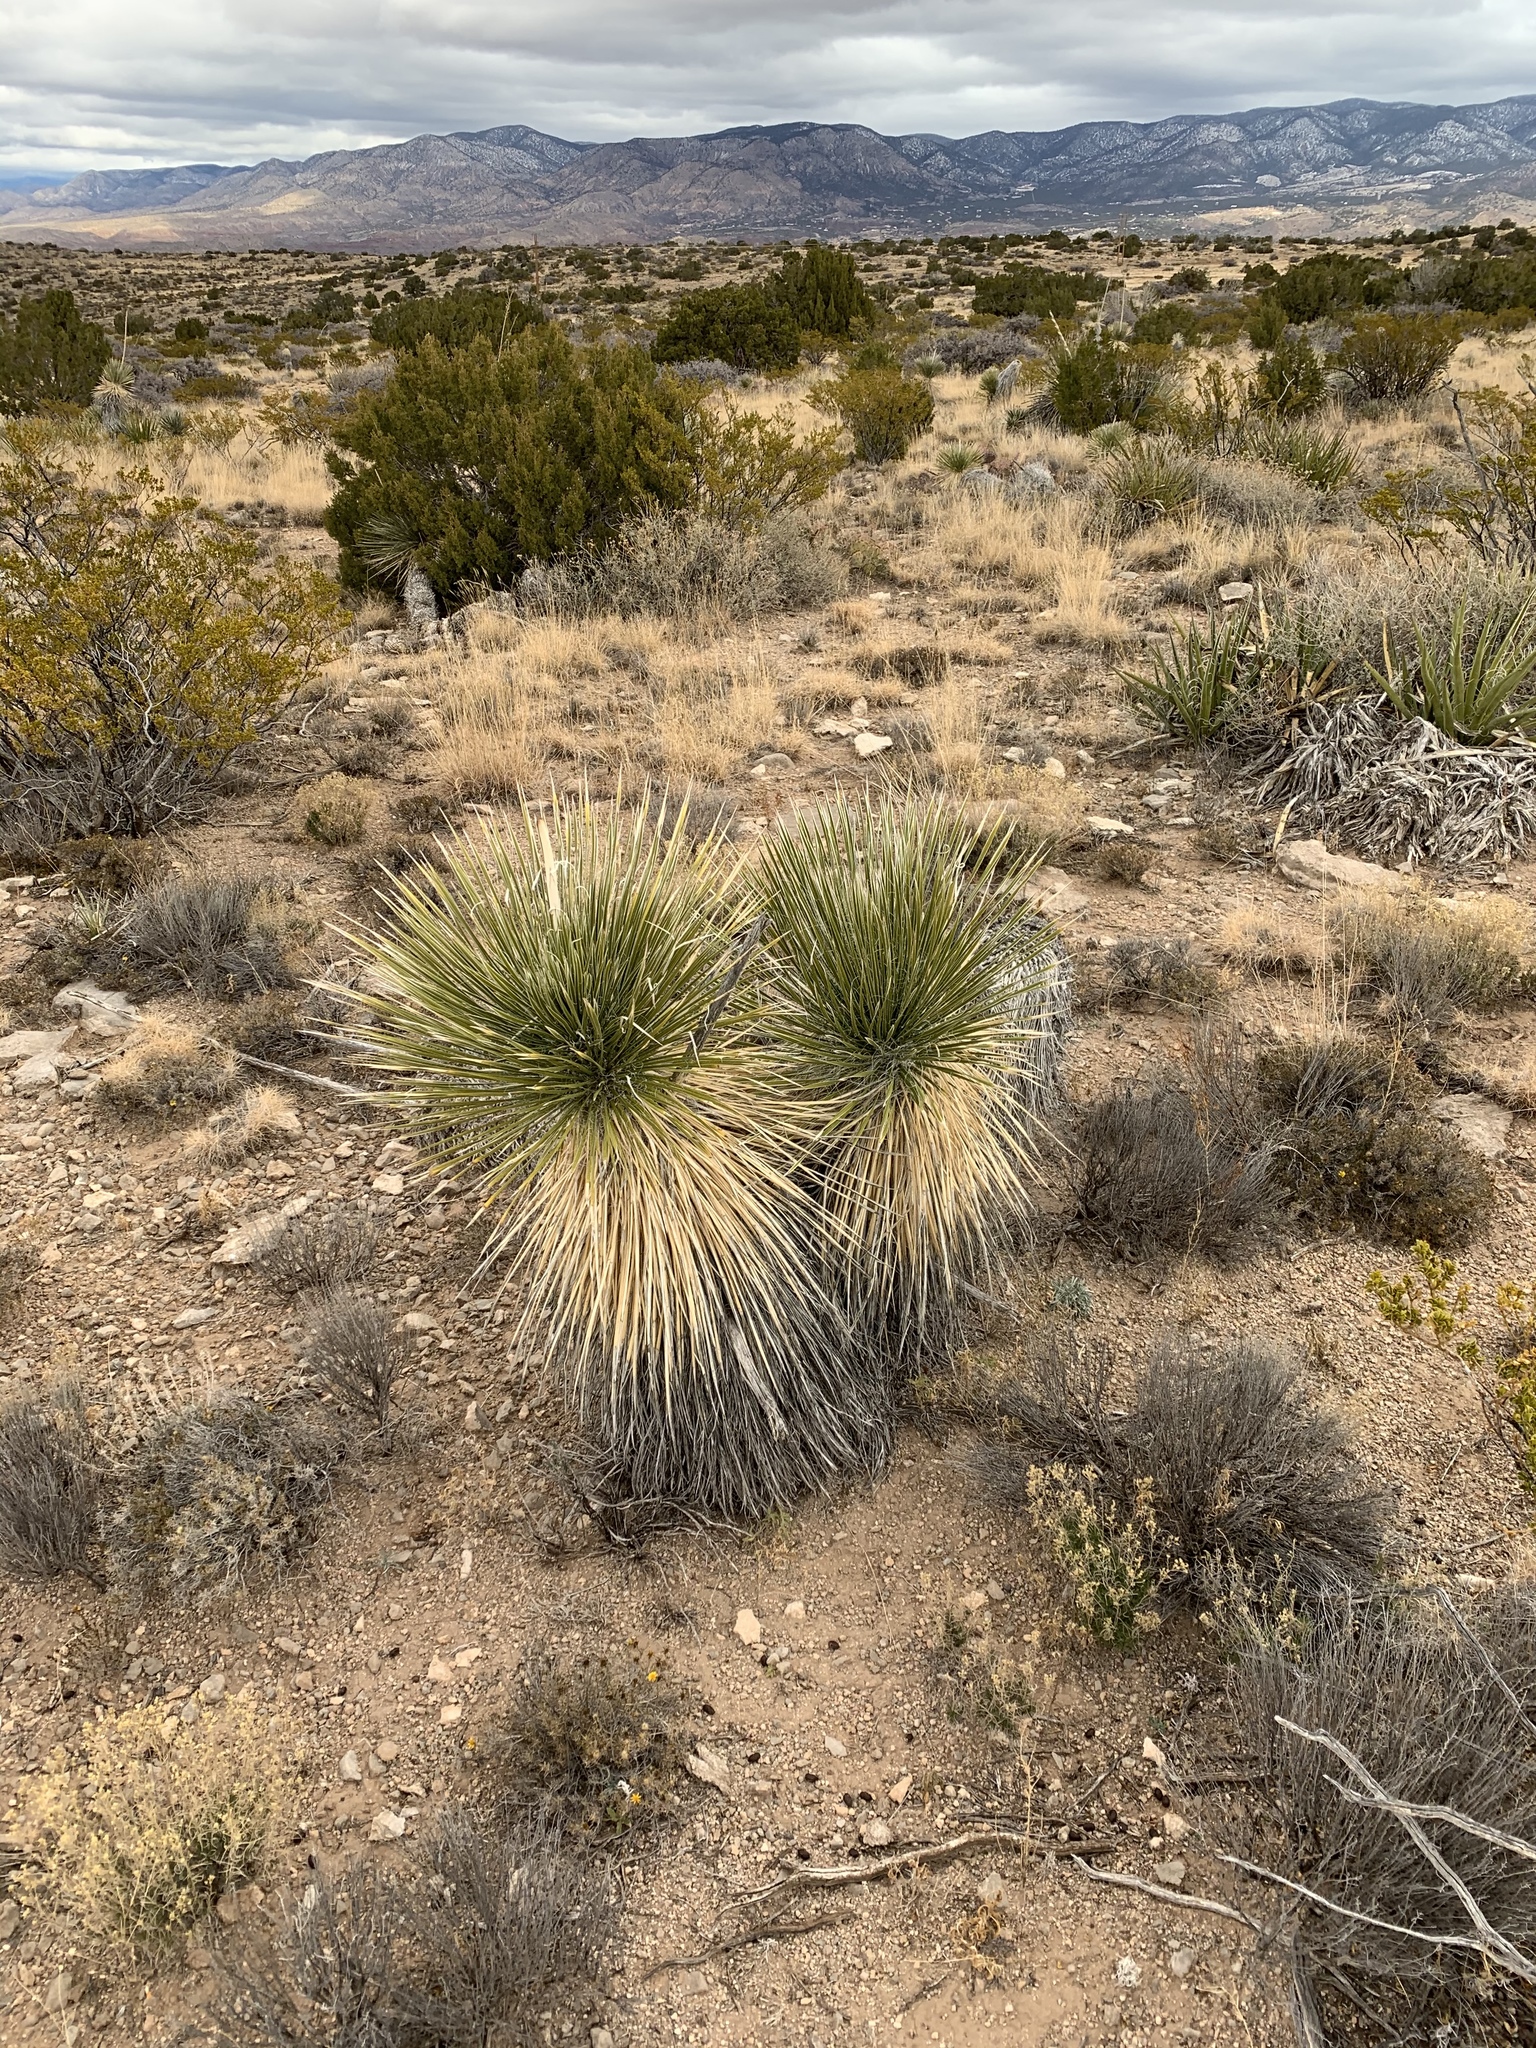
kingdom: Plantae
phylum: Tracheophyta
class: Liliopsida
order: Asparagales
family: Asparagaceae
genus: Yucca
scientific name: Yucca elata
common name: Palmella
